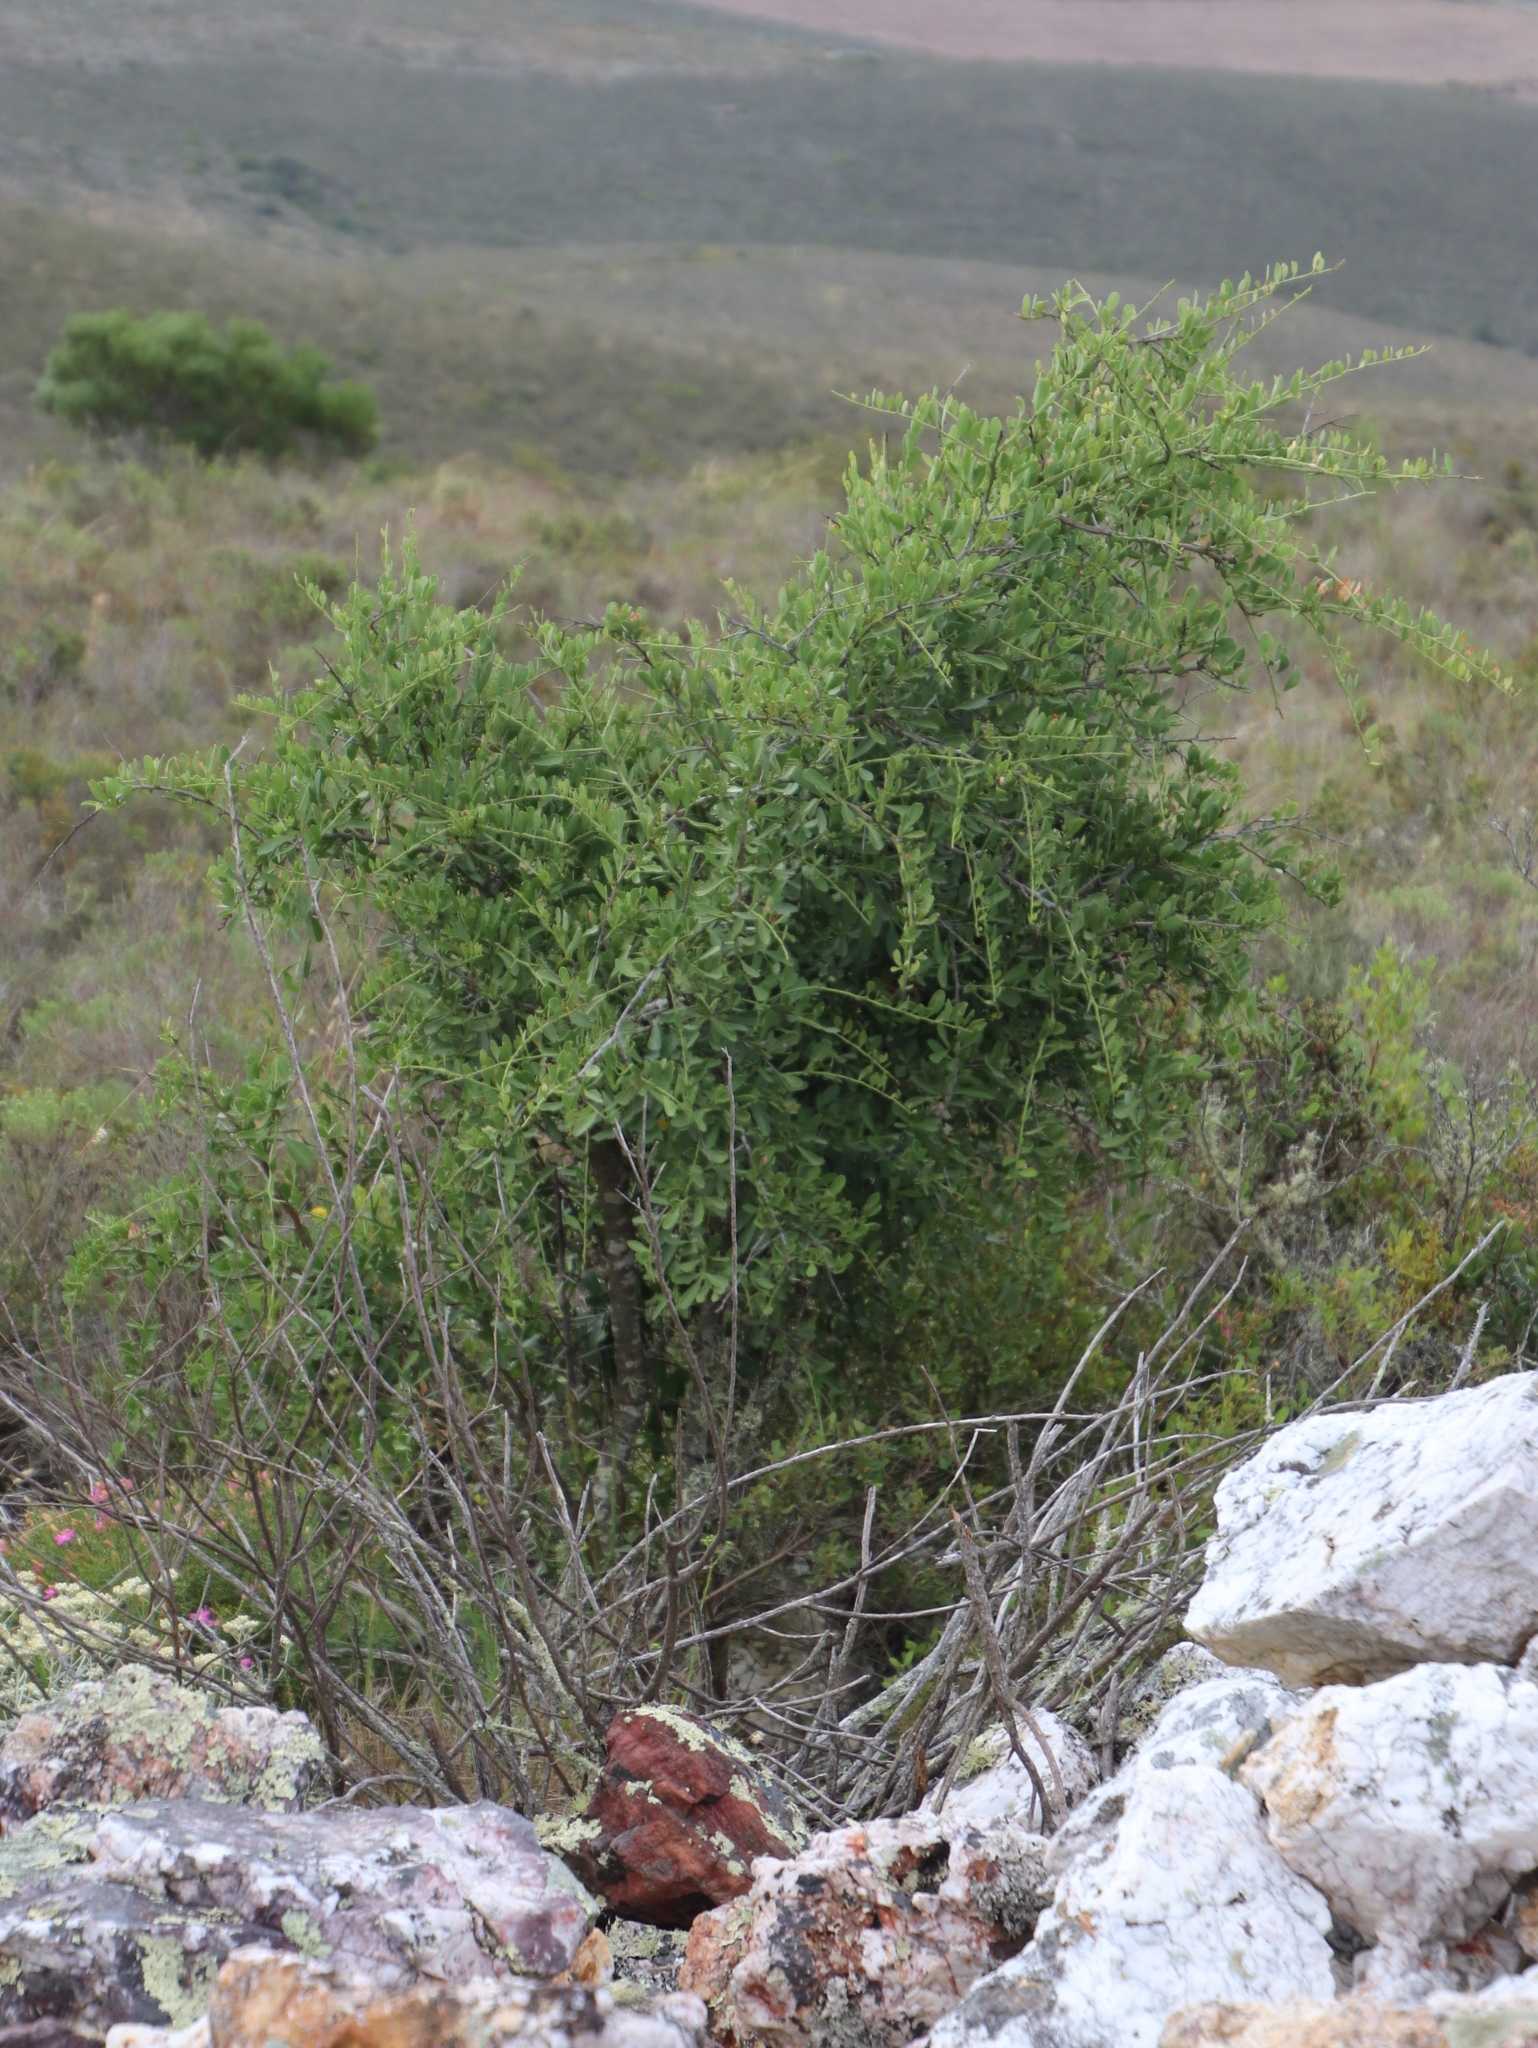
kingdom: Plantae
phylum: Tracheophyta
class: Magnoliopsida
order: Celastrales
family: Celastraceae
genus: Gymnosporia
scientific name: Gymnosporia buxifolia
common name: Common spike-thorn
